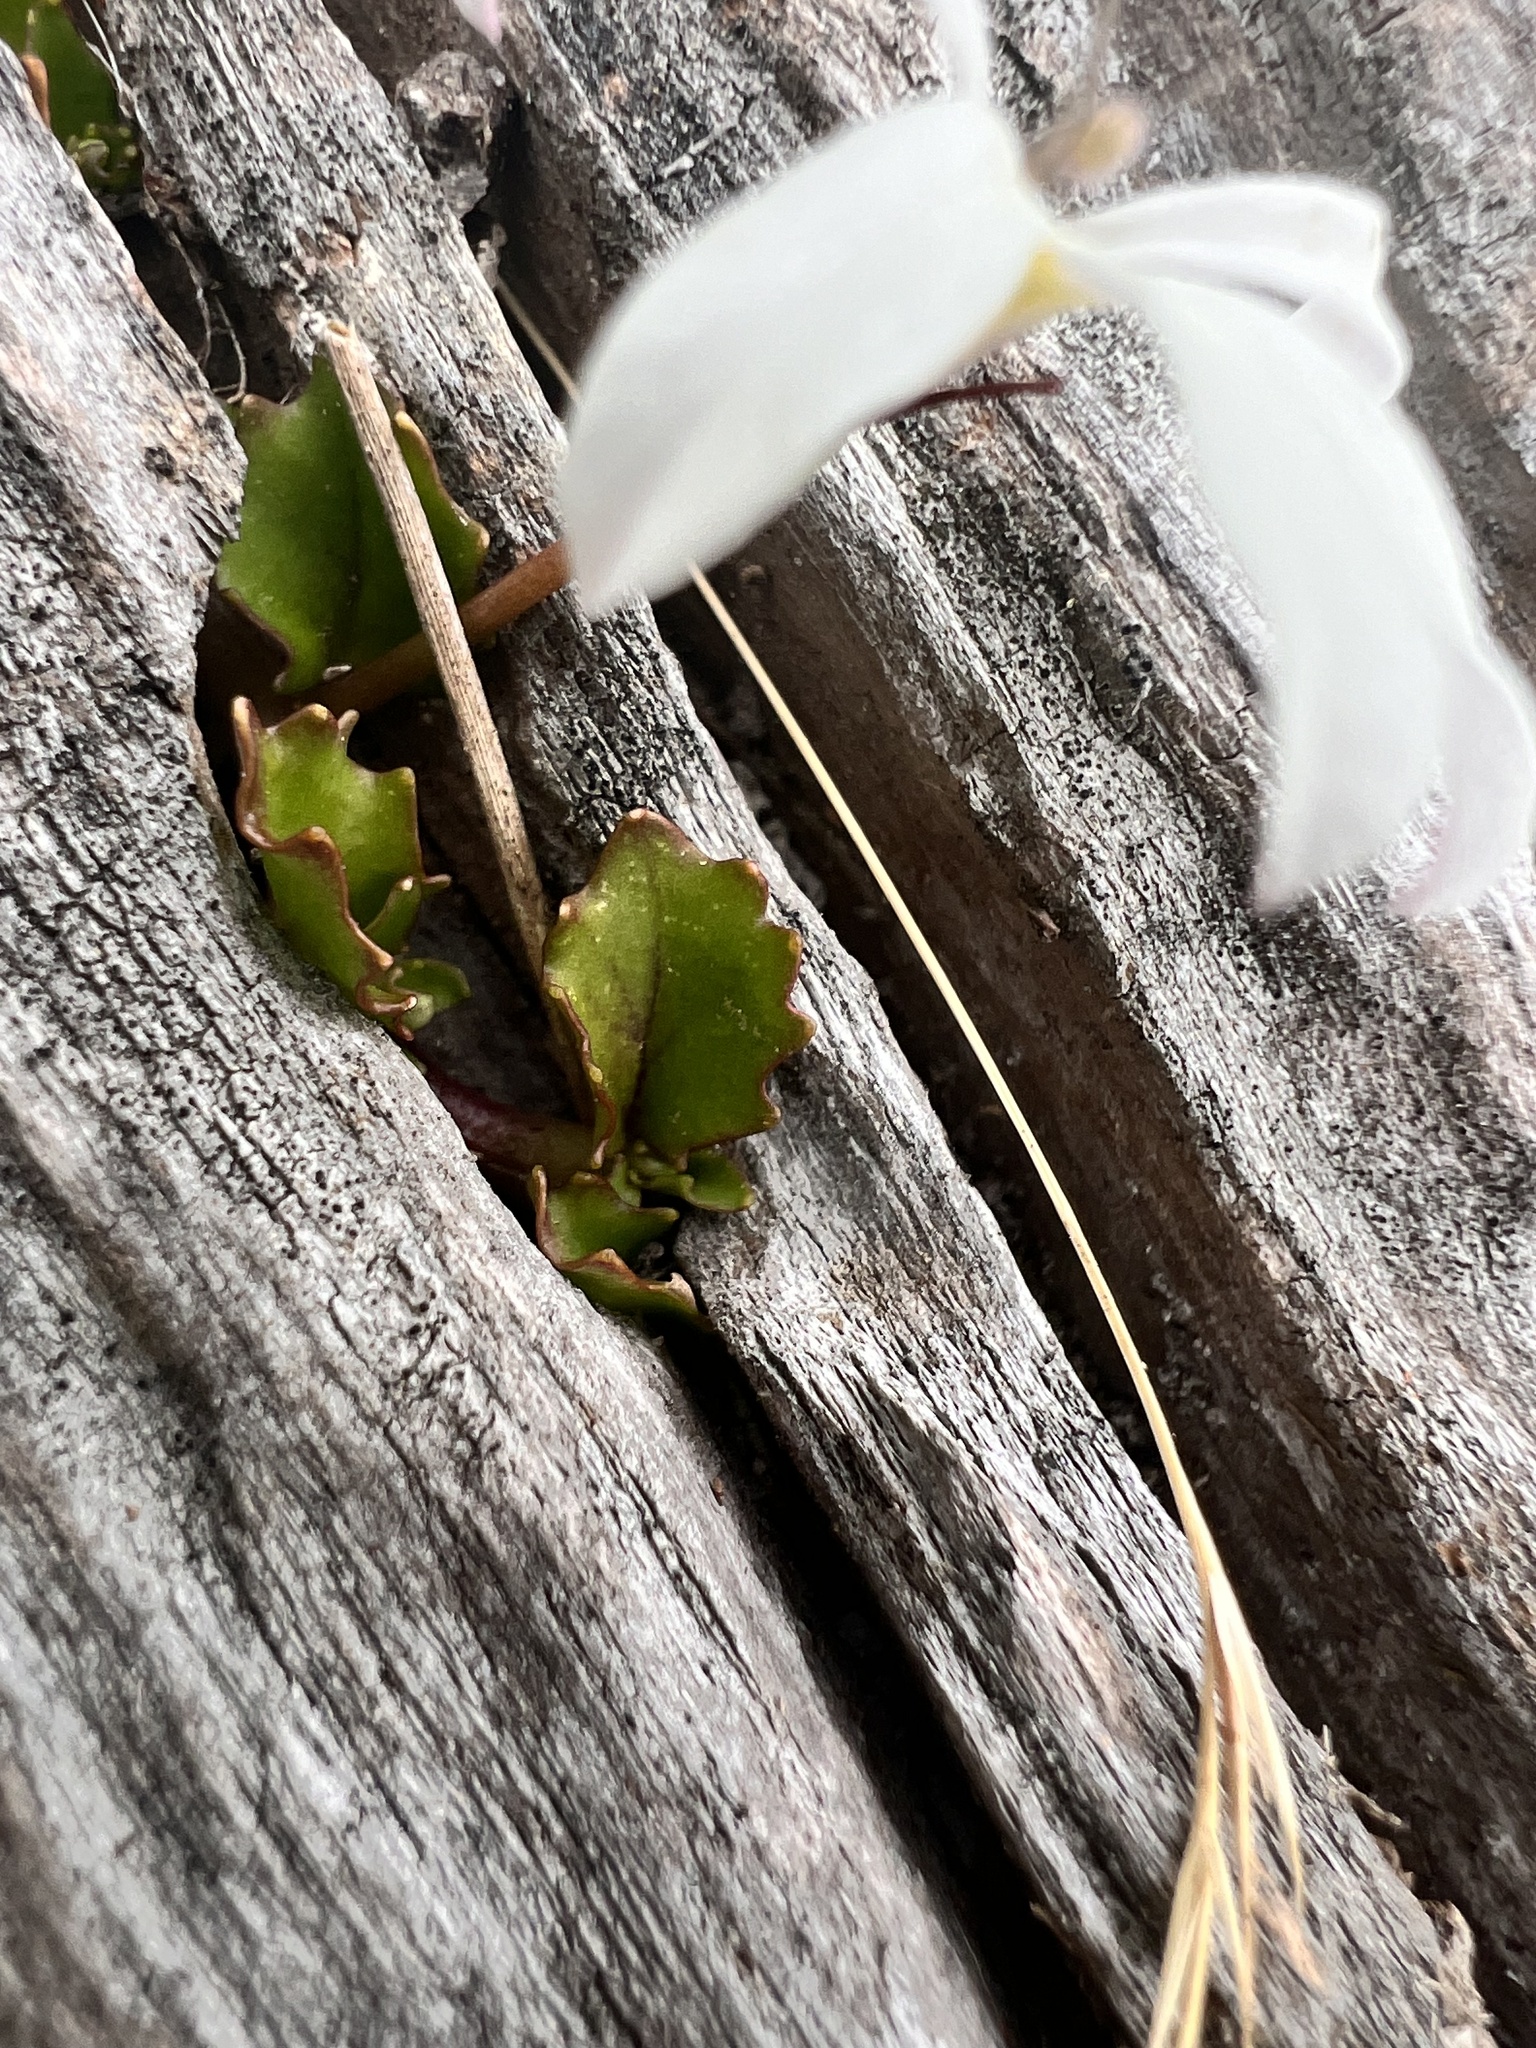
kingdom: Plantae
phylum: Tracheophyta
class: Magnoliopsida
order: Asterales
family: Campanulaceae
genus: Lobelia
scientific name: Lobelia angulata
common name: Lawn lobelia
